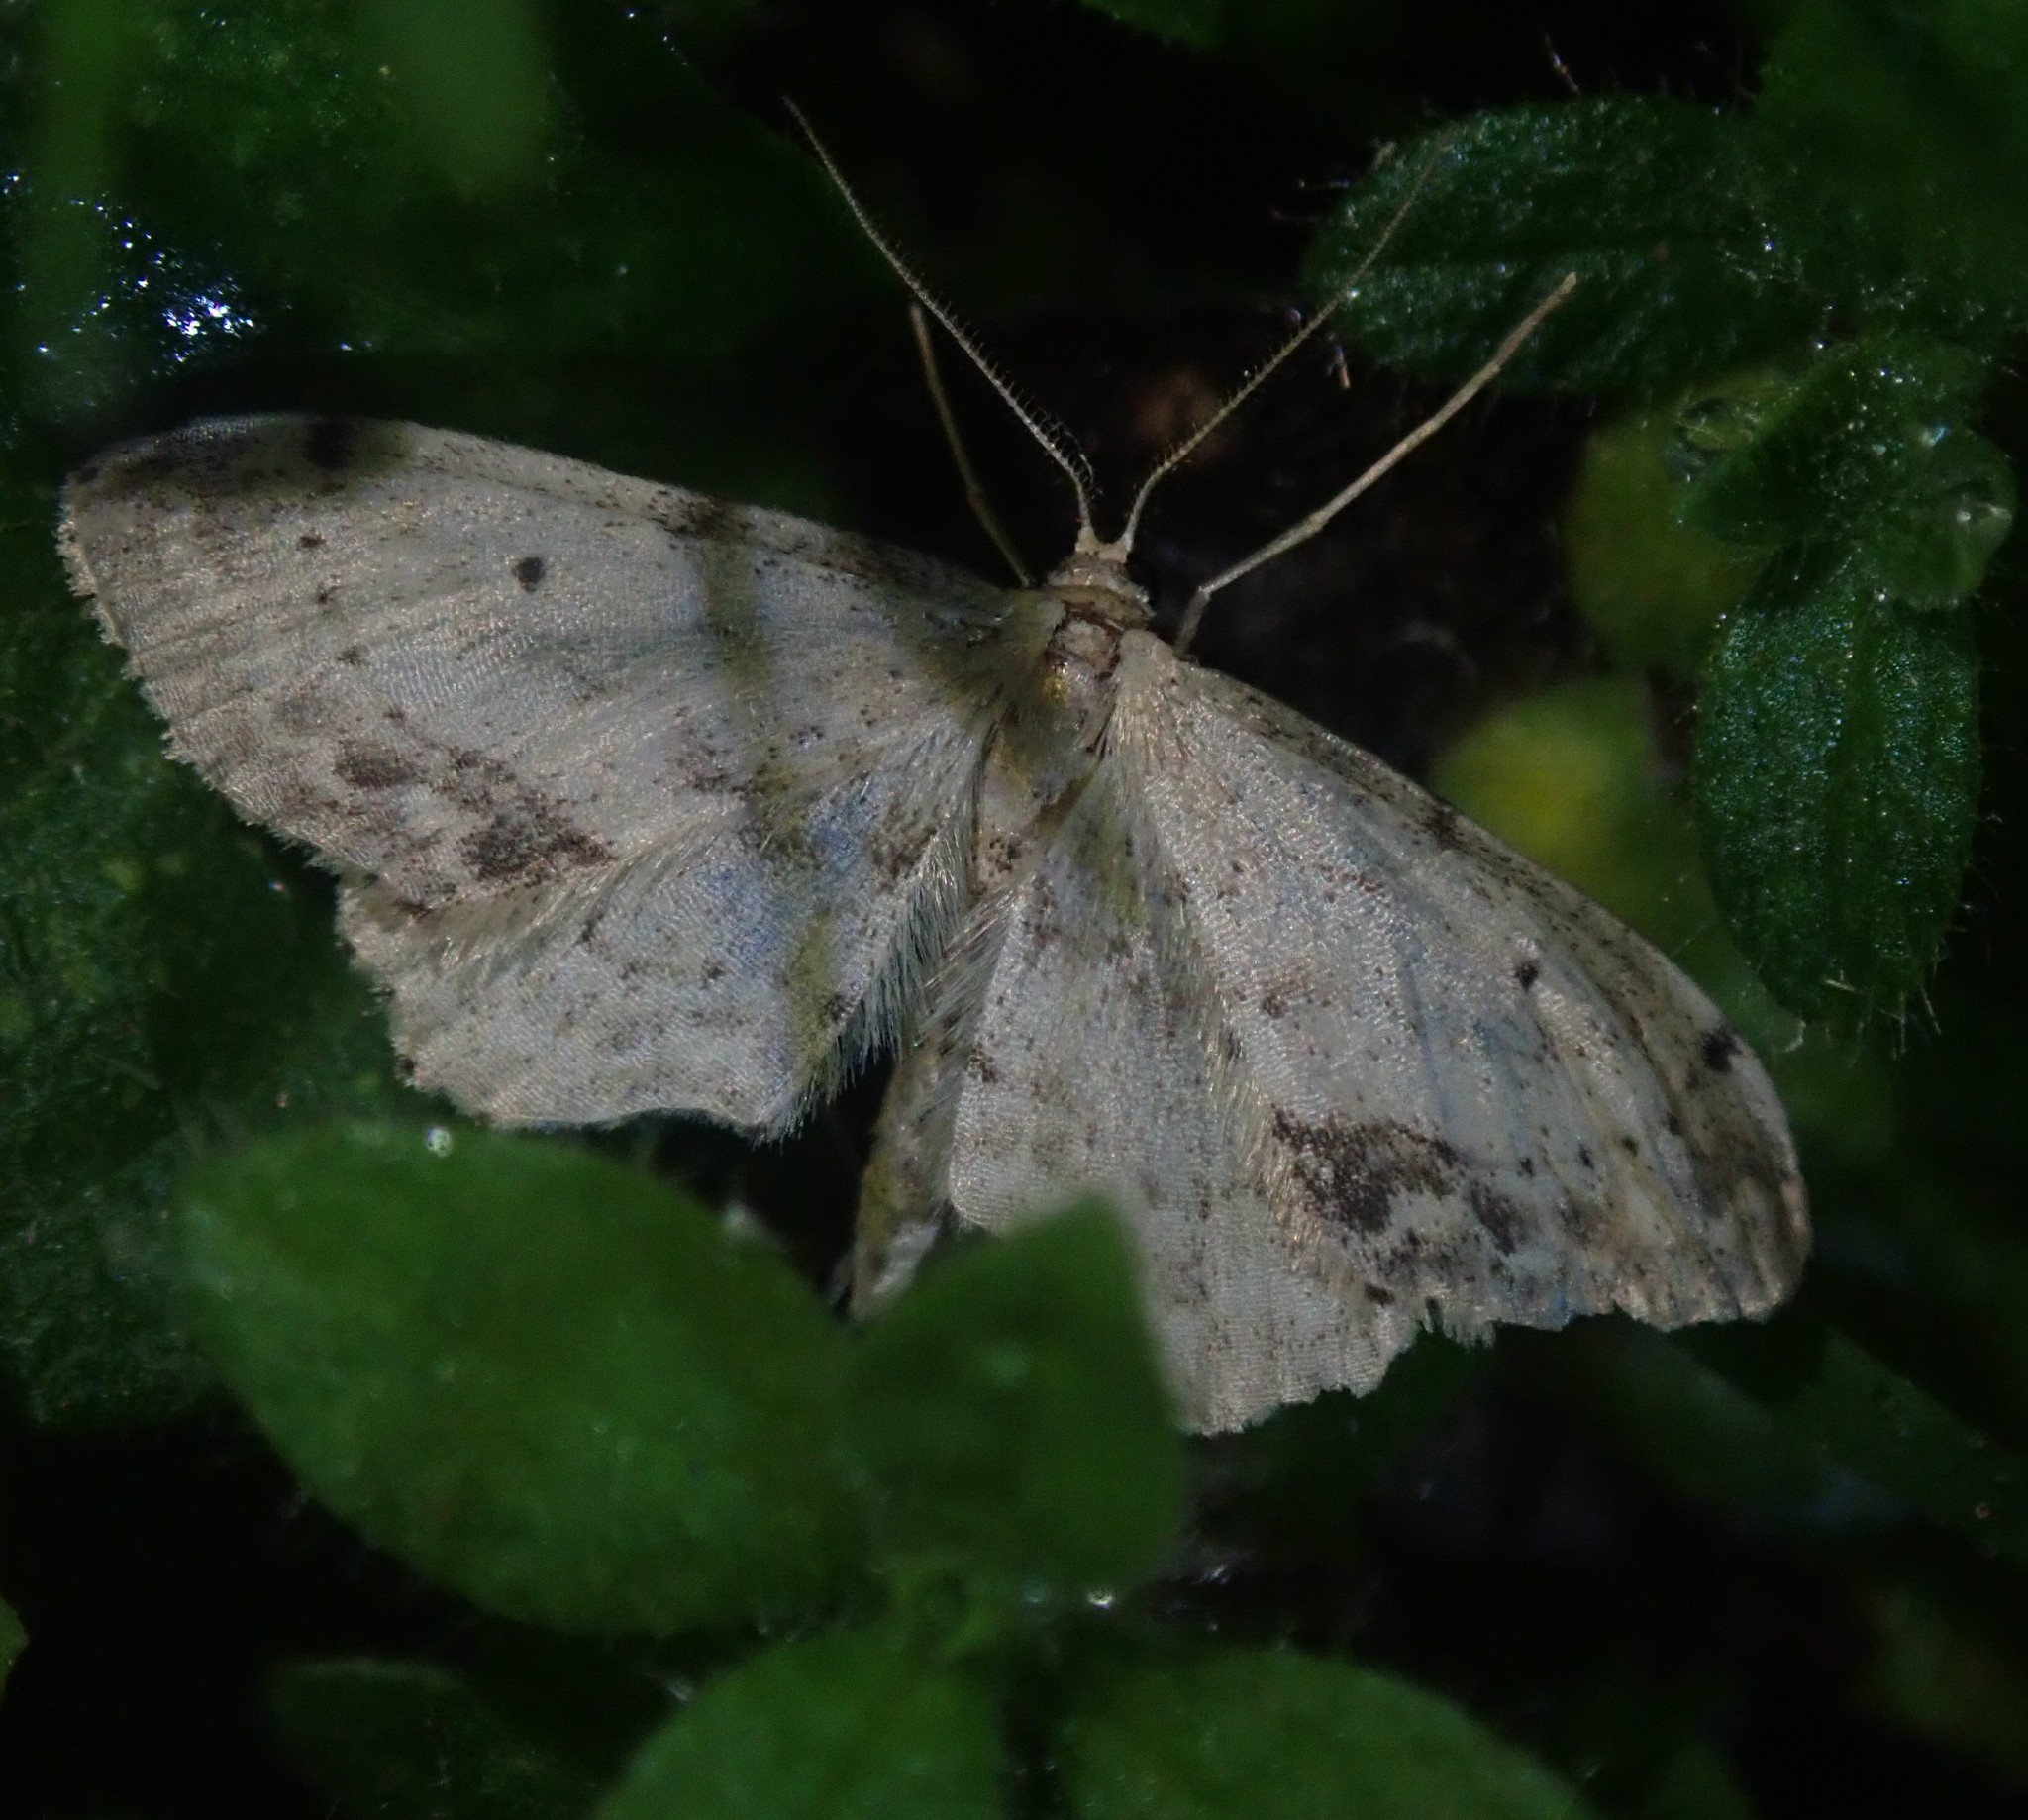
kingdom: Animalia
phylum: Arthropoda
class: Insecta
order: Lepidoptera
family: Geometridae
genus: Idaea
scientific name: Idaea dimidiata
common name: Single-dotted wave
